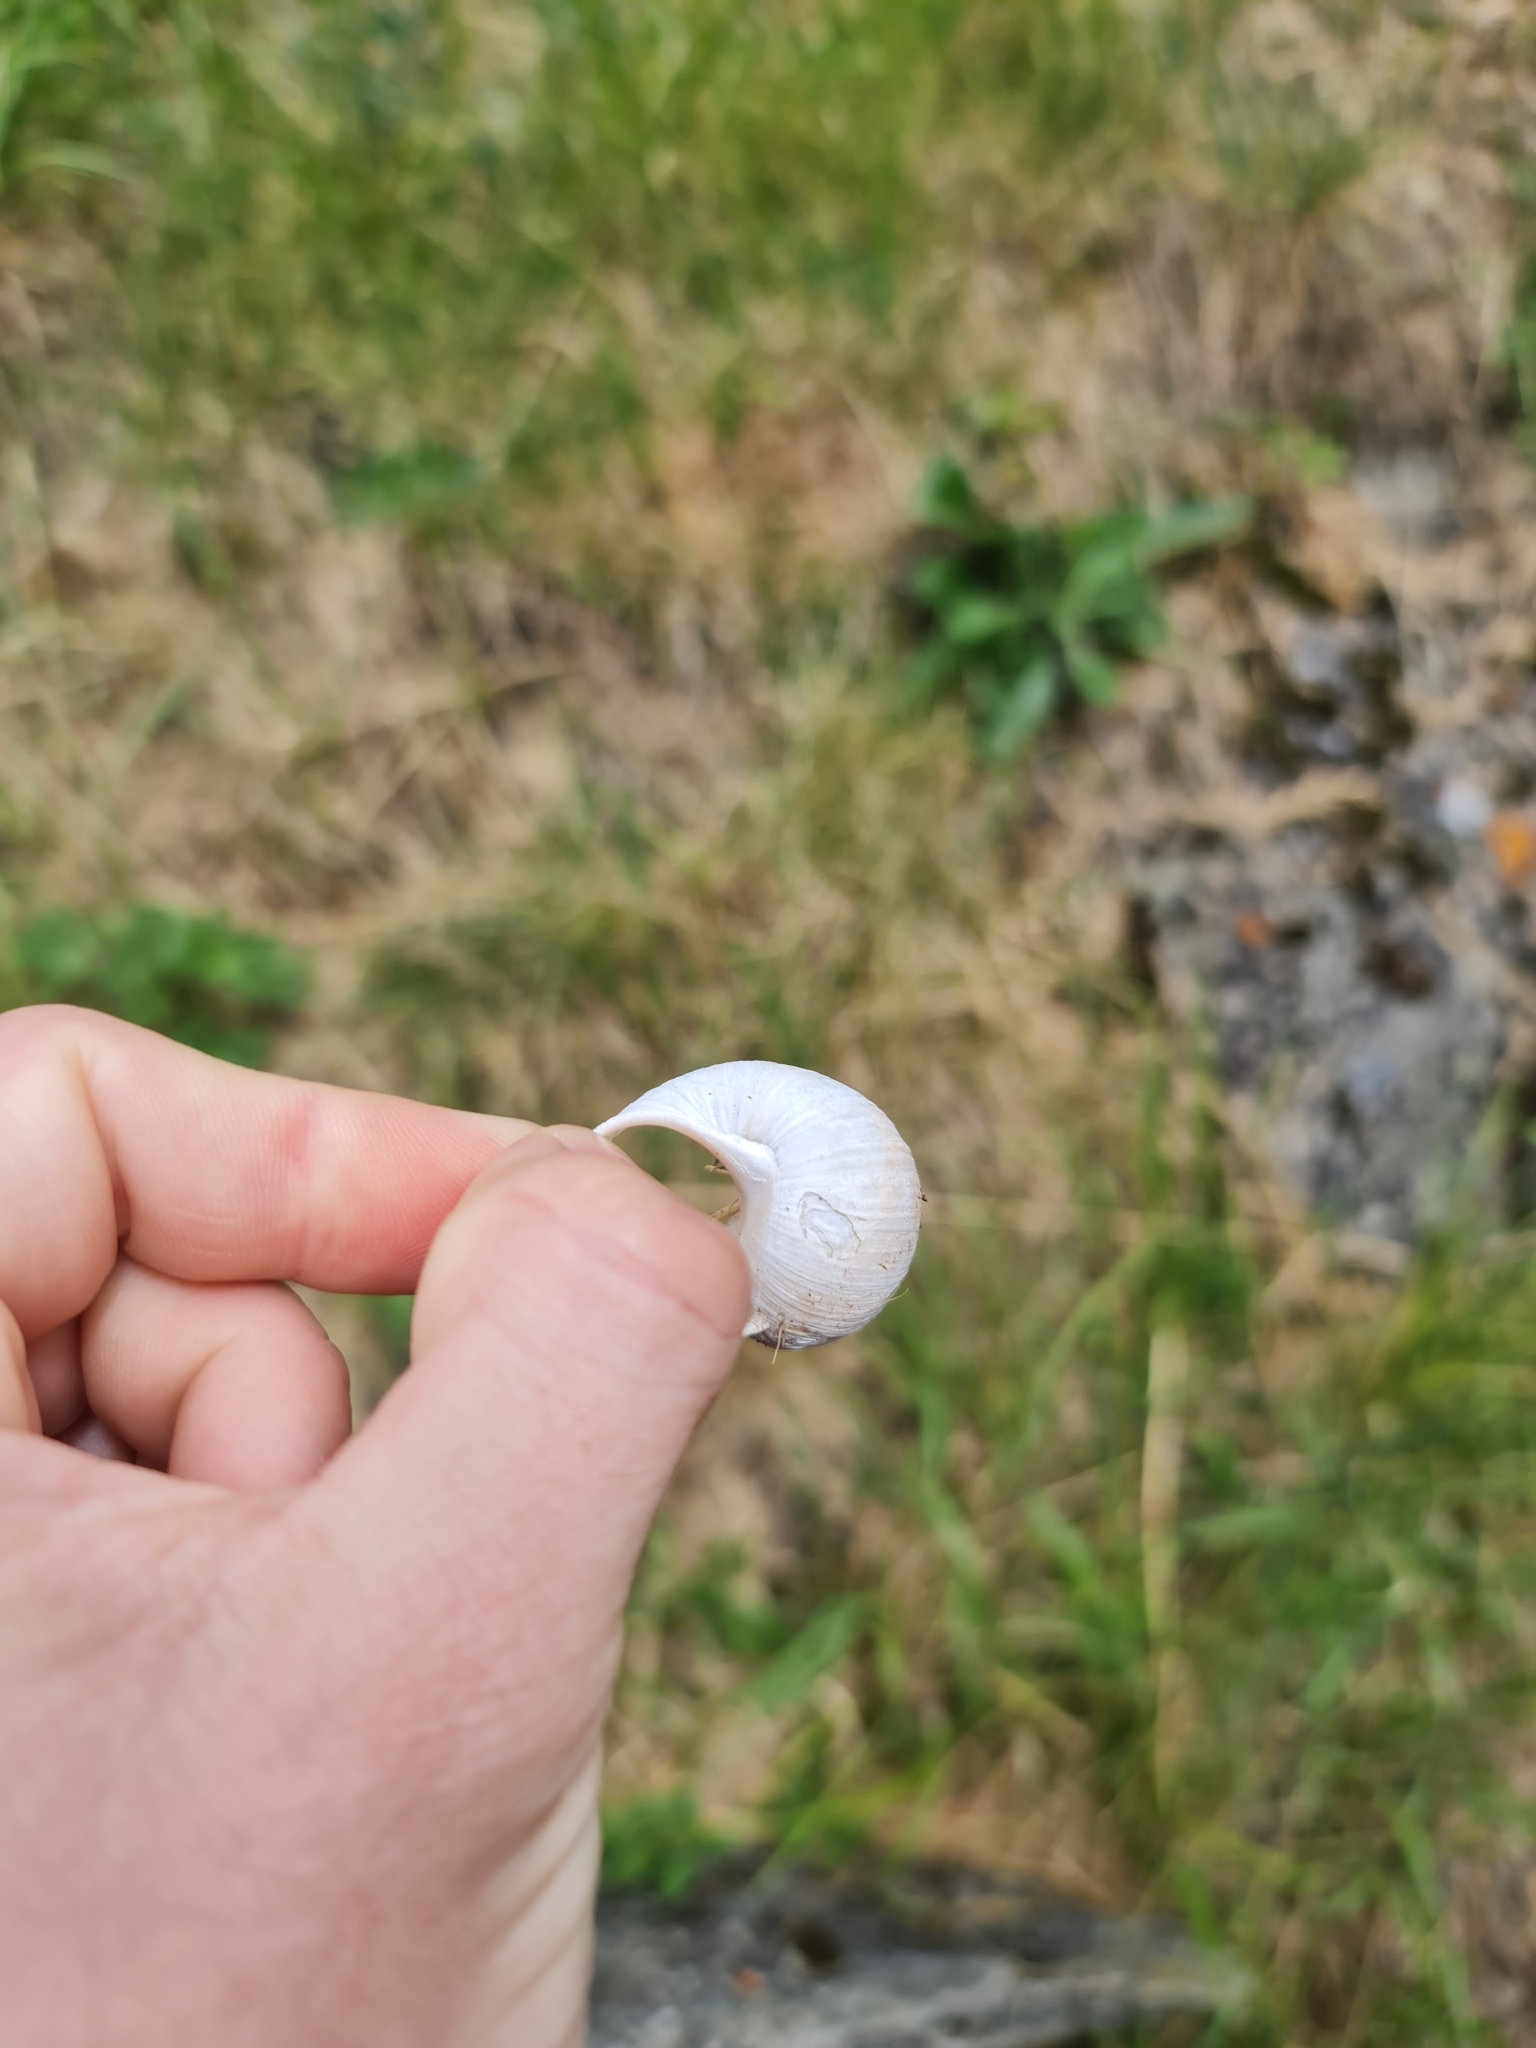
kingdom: Animalia
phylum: Mollusca
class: Gastropoda
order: Stylommatophora
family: Helicidae
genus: Helix
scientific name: Helix pomatia
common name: Roman snail
